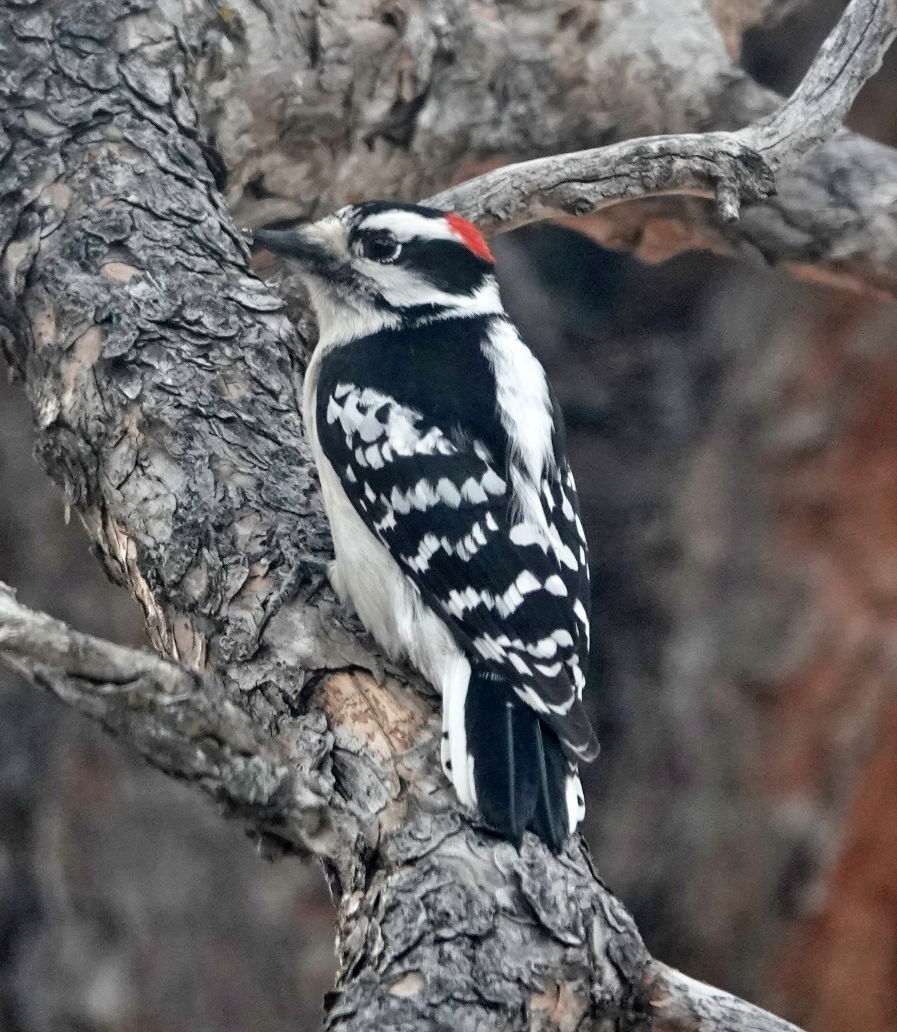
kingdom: Animalia
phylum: Chordata
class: Aves
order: Piciformes
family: Picidae
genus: Dryobates
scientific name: Dryobates pubescens
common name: Downy woodpecker
